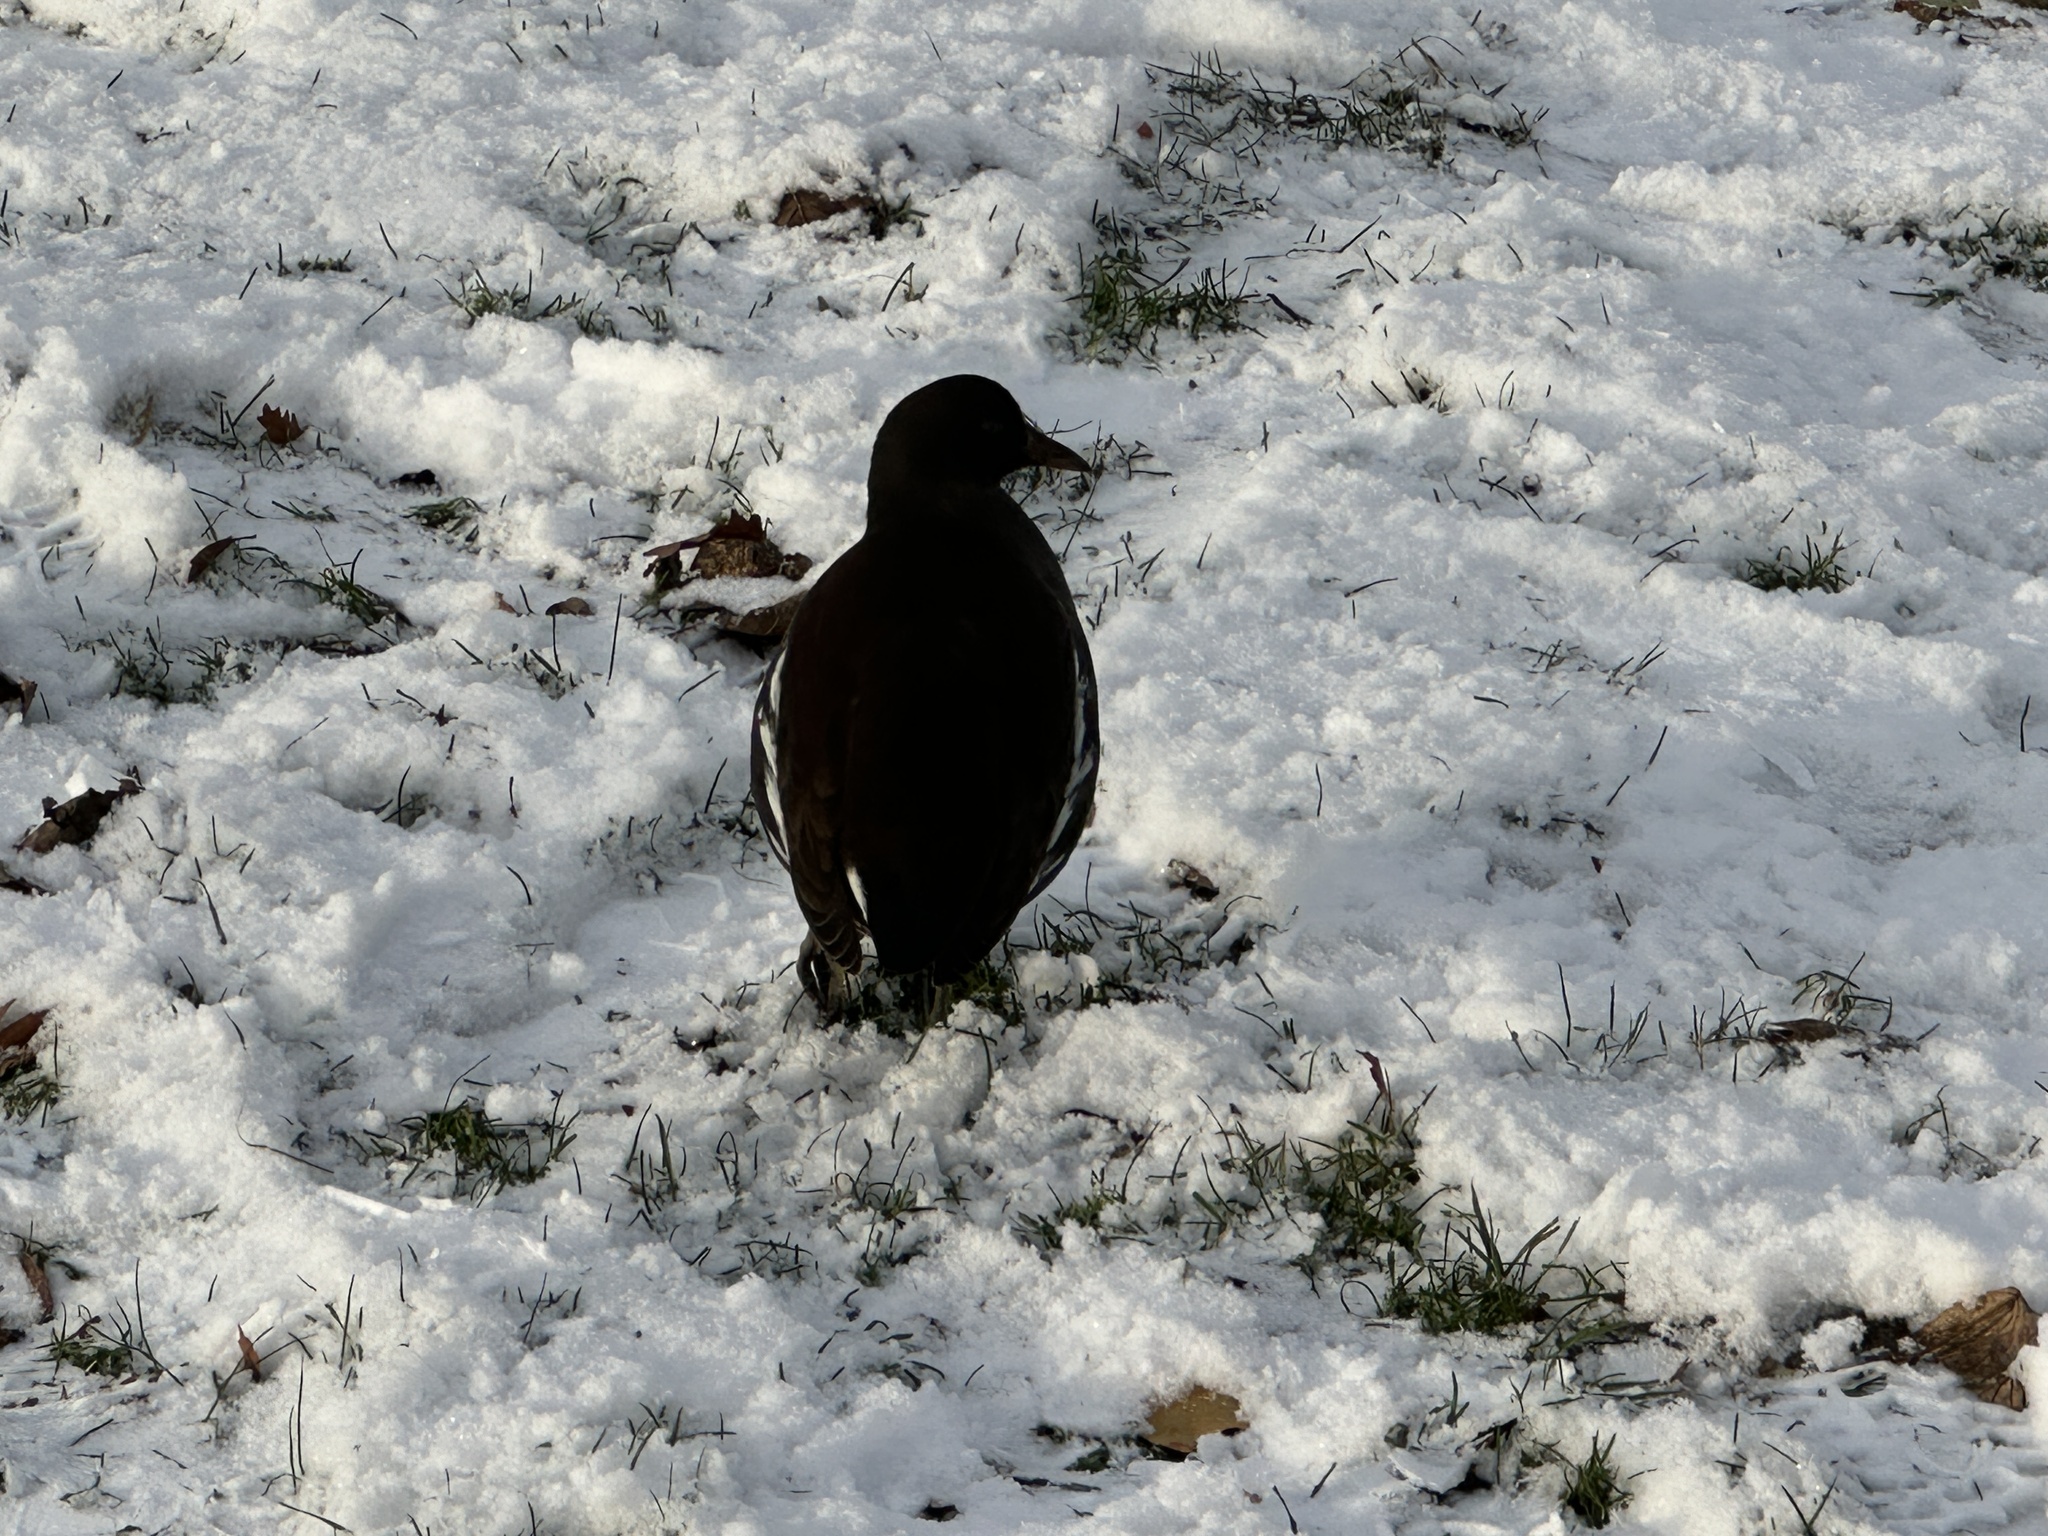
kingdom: Animalia
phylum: Chordata
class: Aves
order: Gruiformes
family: Rallidae
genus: Gallinula
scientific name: Gallinula chloropus
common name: Common moorhen
